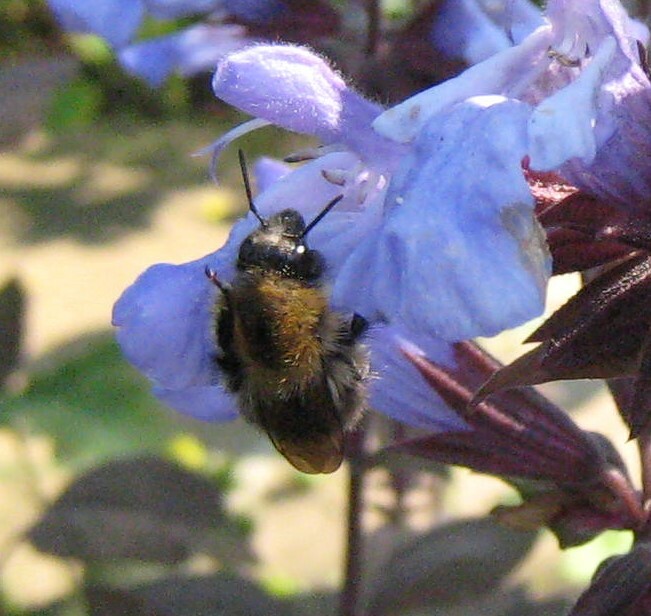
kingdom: Animalia
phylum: Arthropoda
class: Insecta
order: Hymenoptera
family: Apidae
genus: Bombus
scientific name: Bombus
